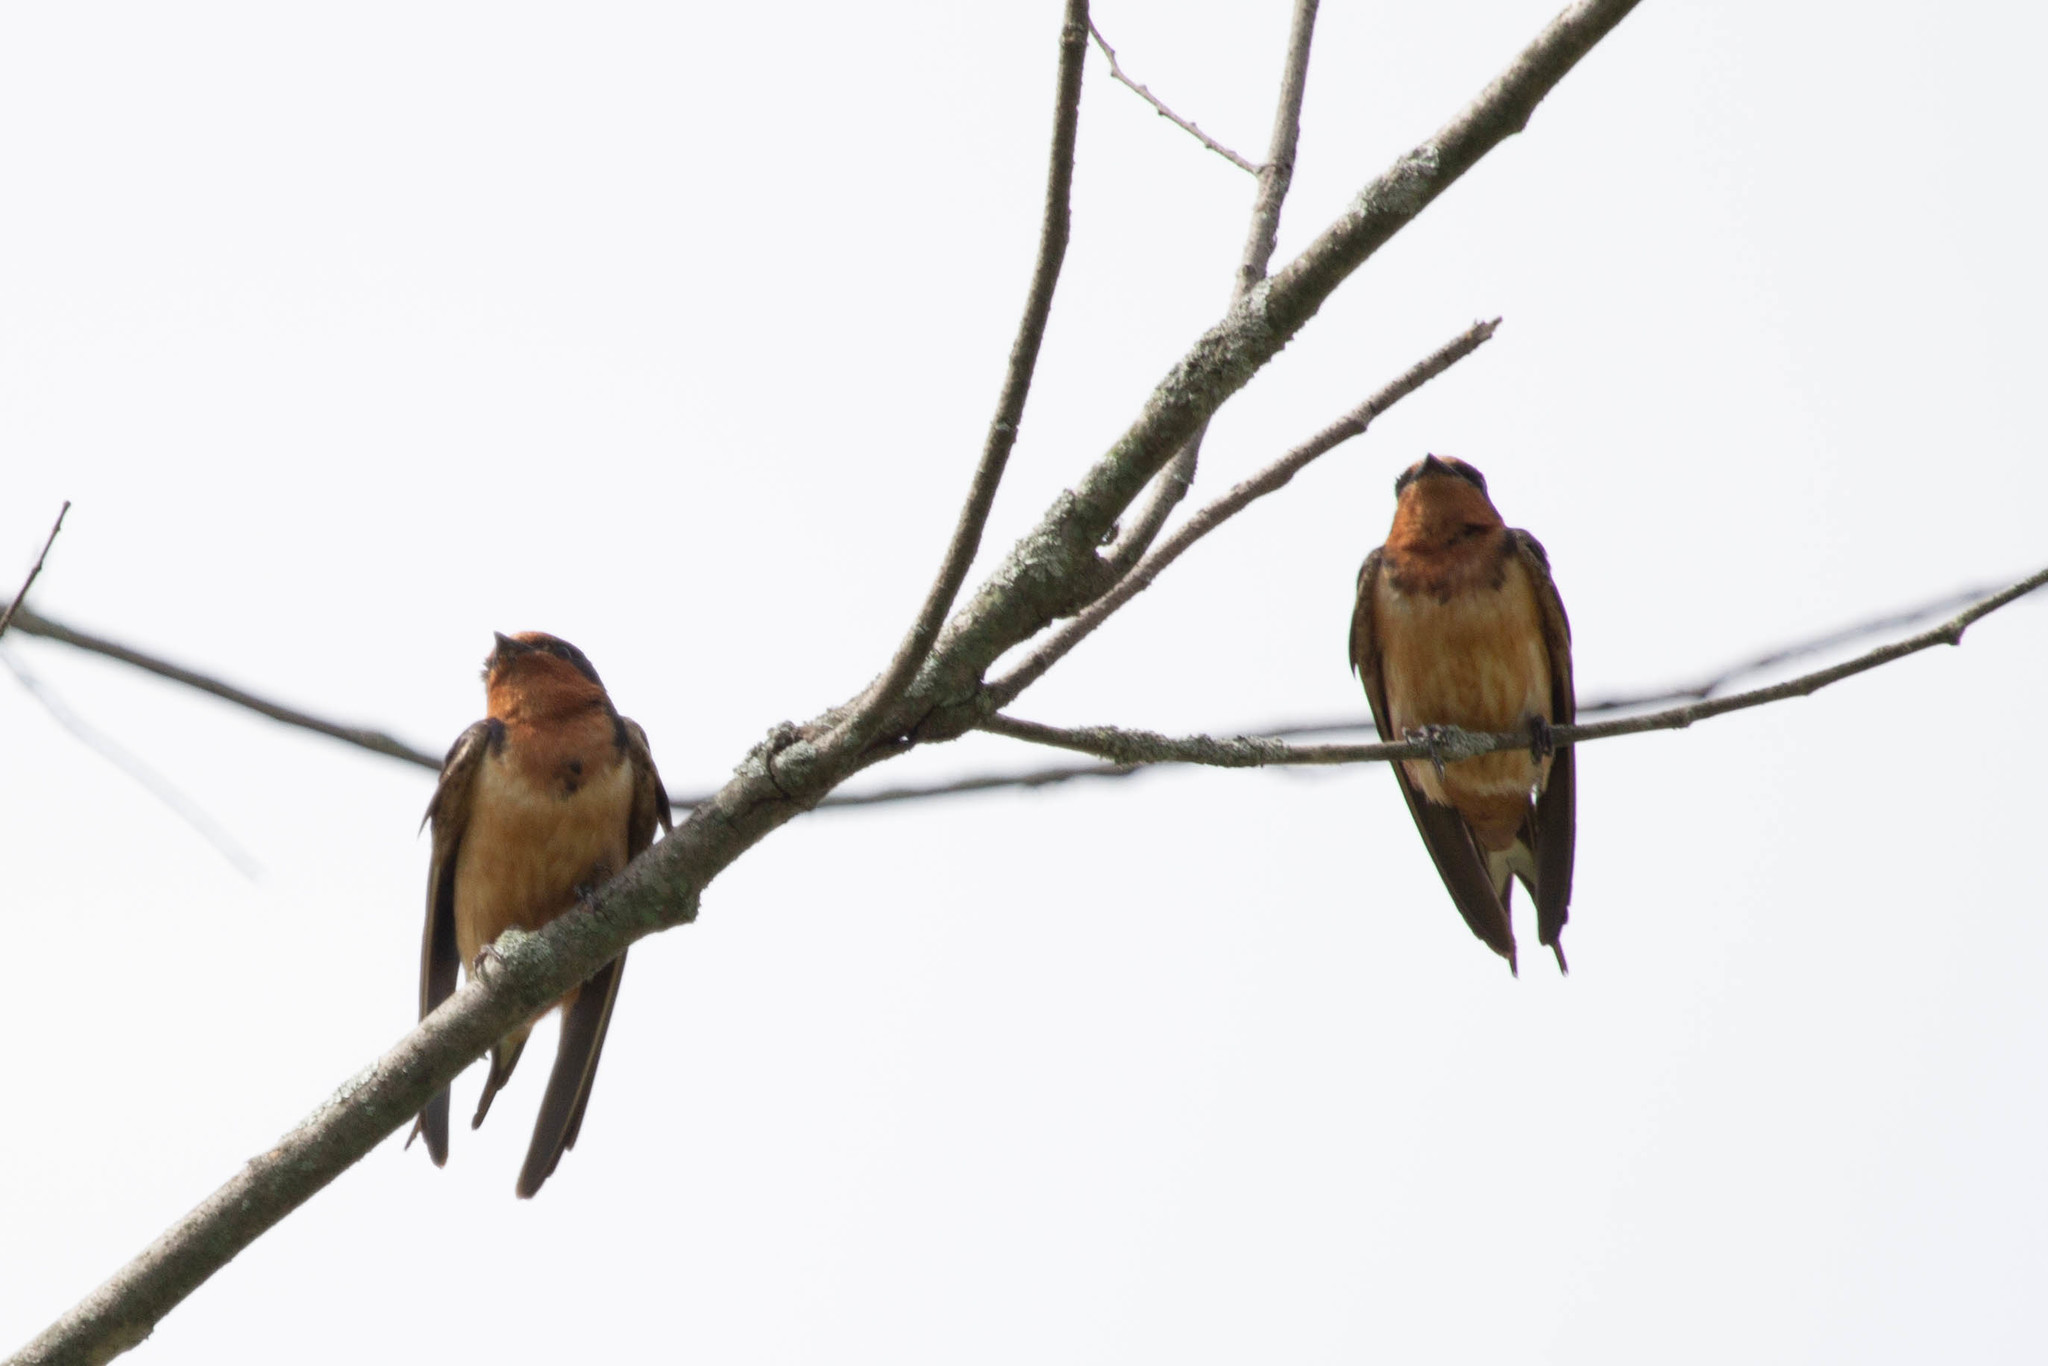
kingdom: Animalia
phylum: Chordata
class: Aves
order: Passeriformes
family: Hirundinidae
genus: Hirundo
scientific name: Hirundo rustica
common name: Barn swallow
